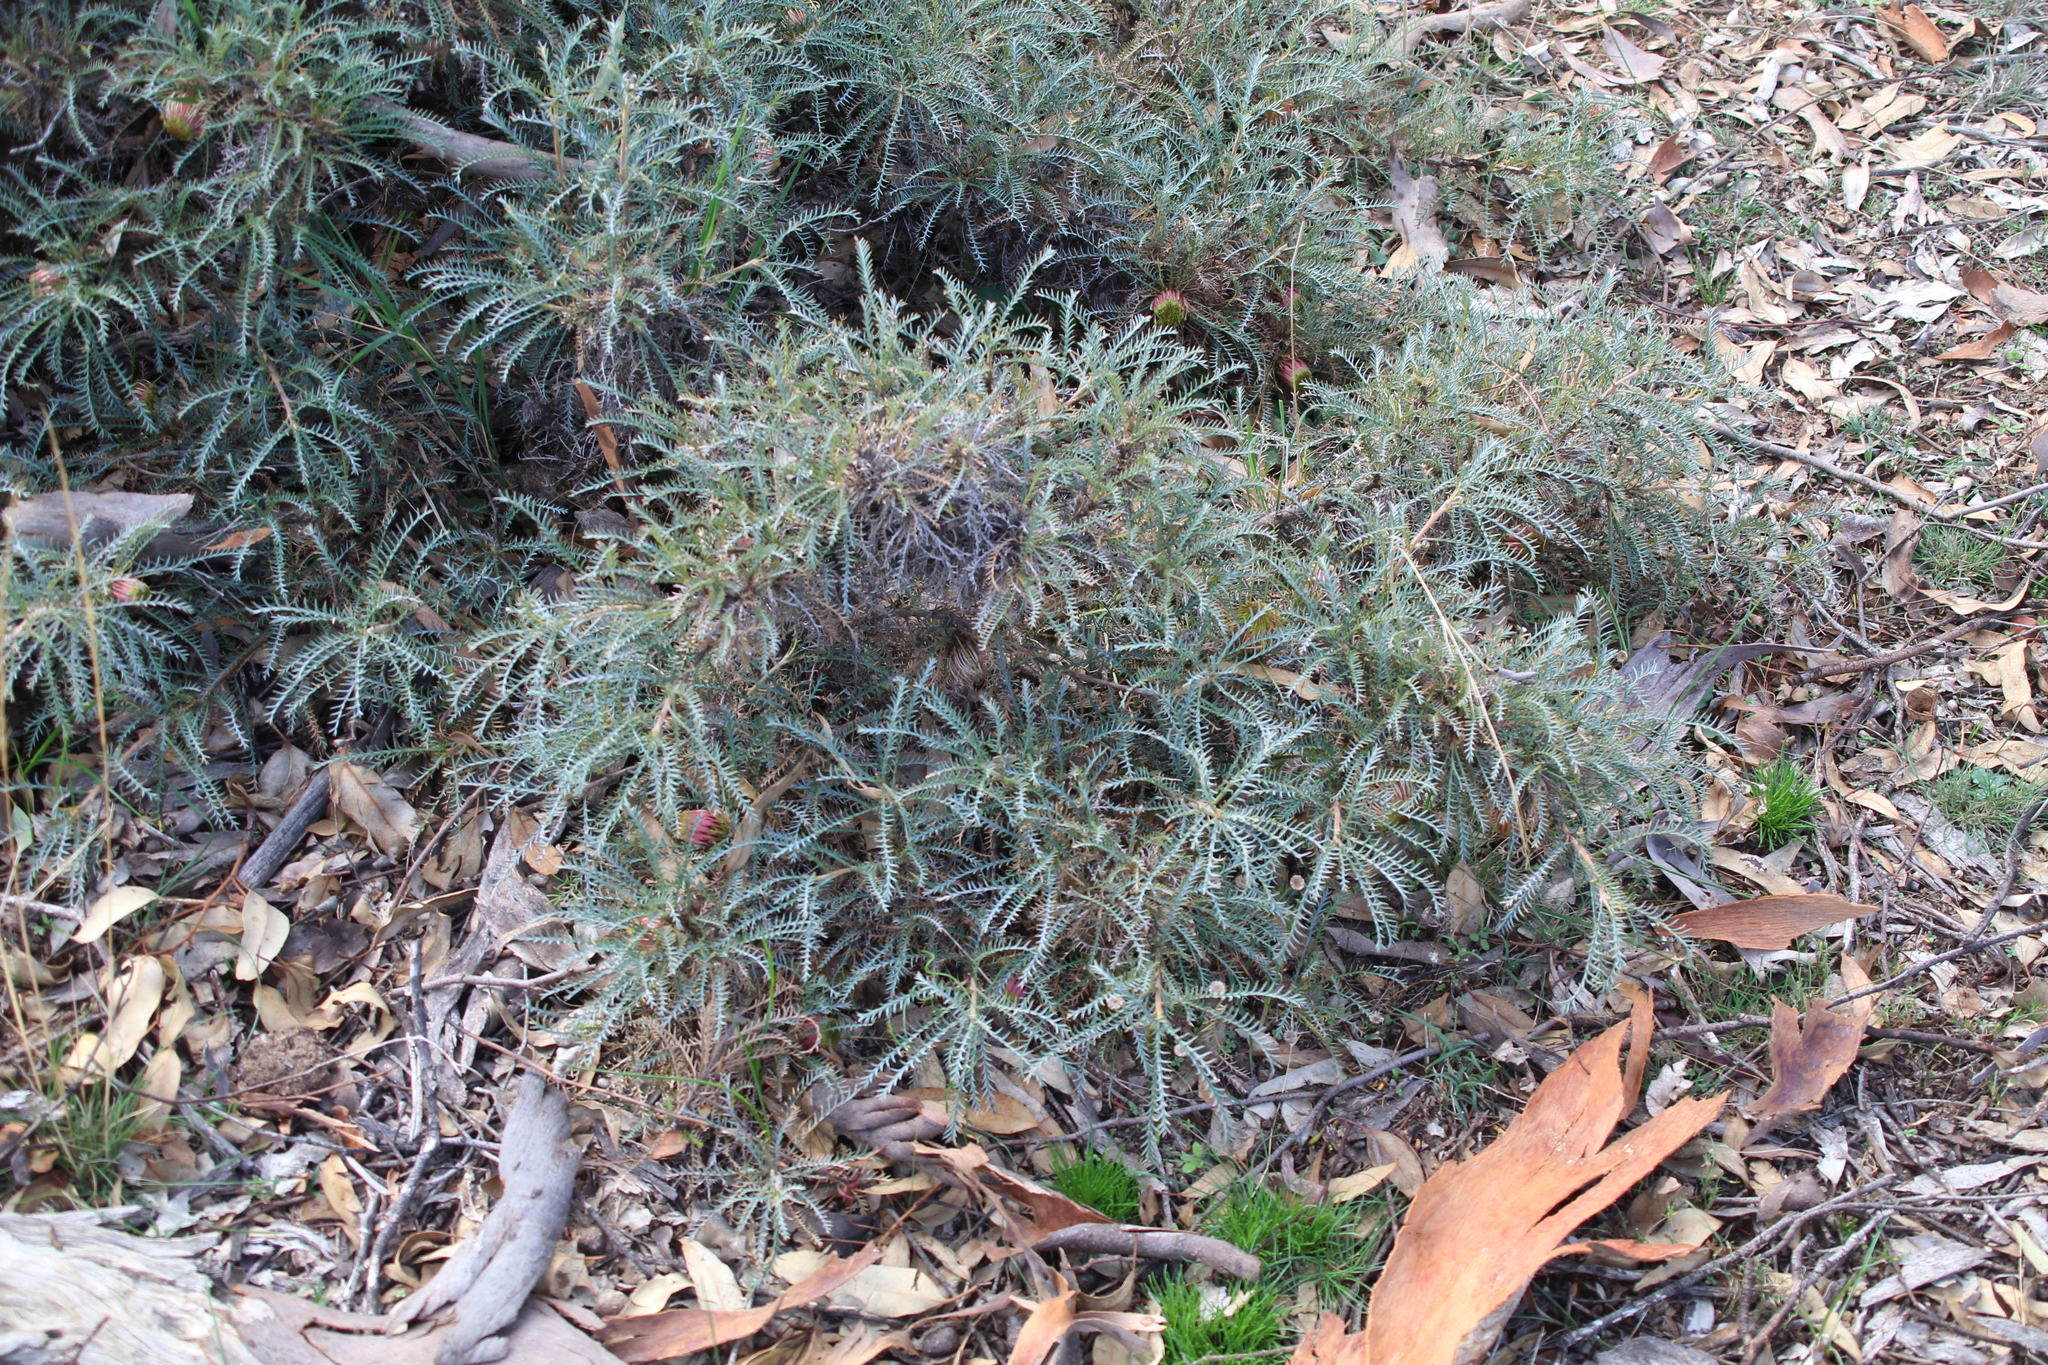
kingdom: Plantae
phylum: Tracheophyta
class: Magnoliopsida
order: Proteales
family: Proteaceae
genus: Banksia
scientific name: Banksia fraseri
